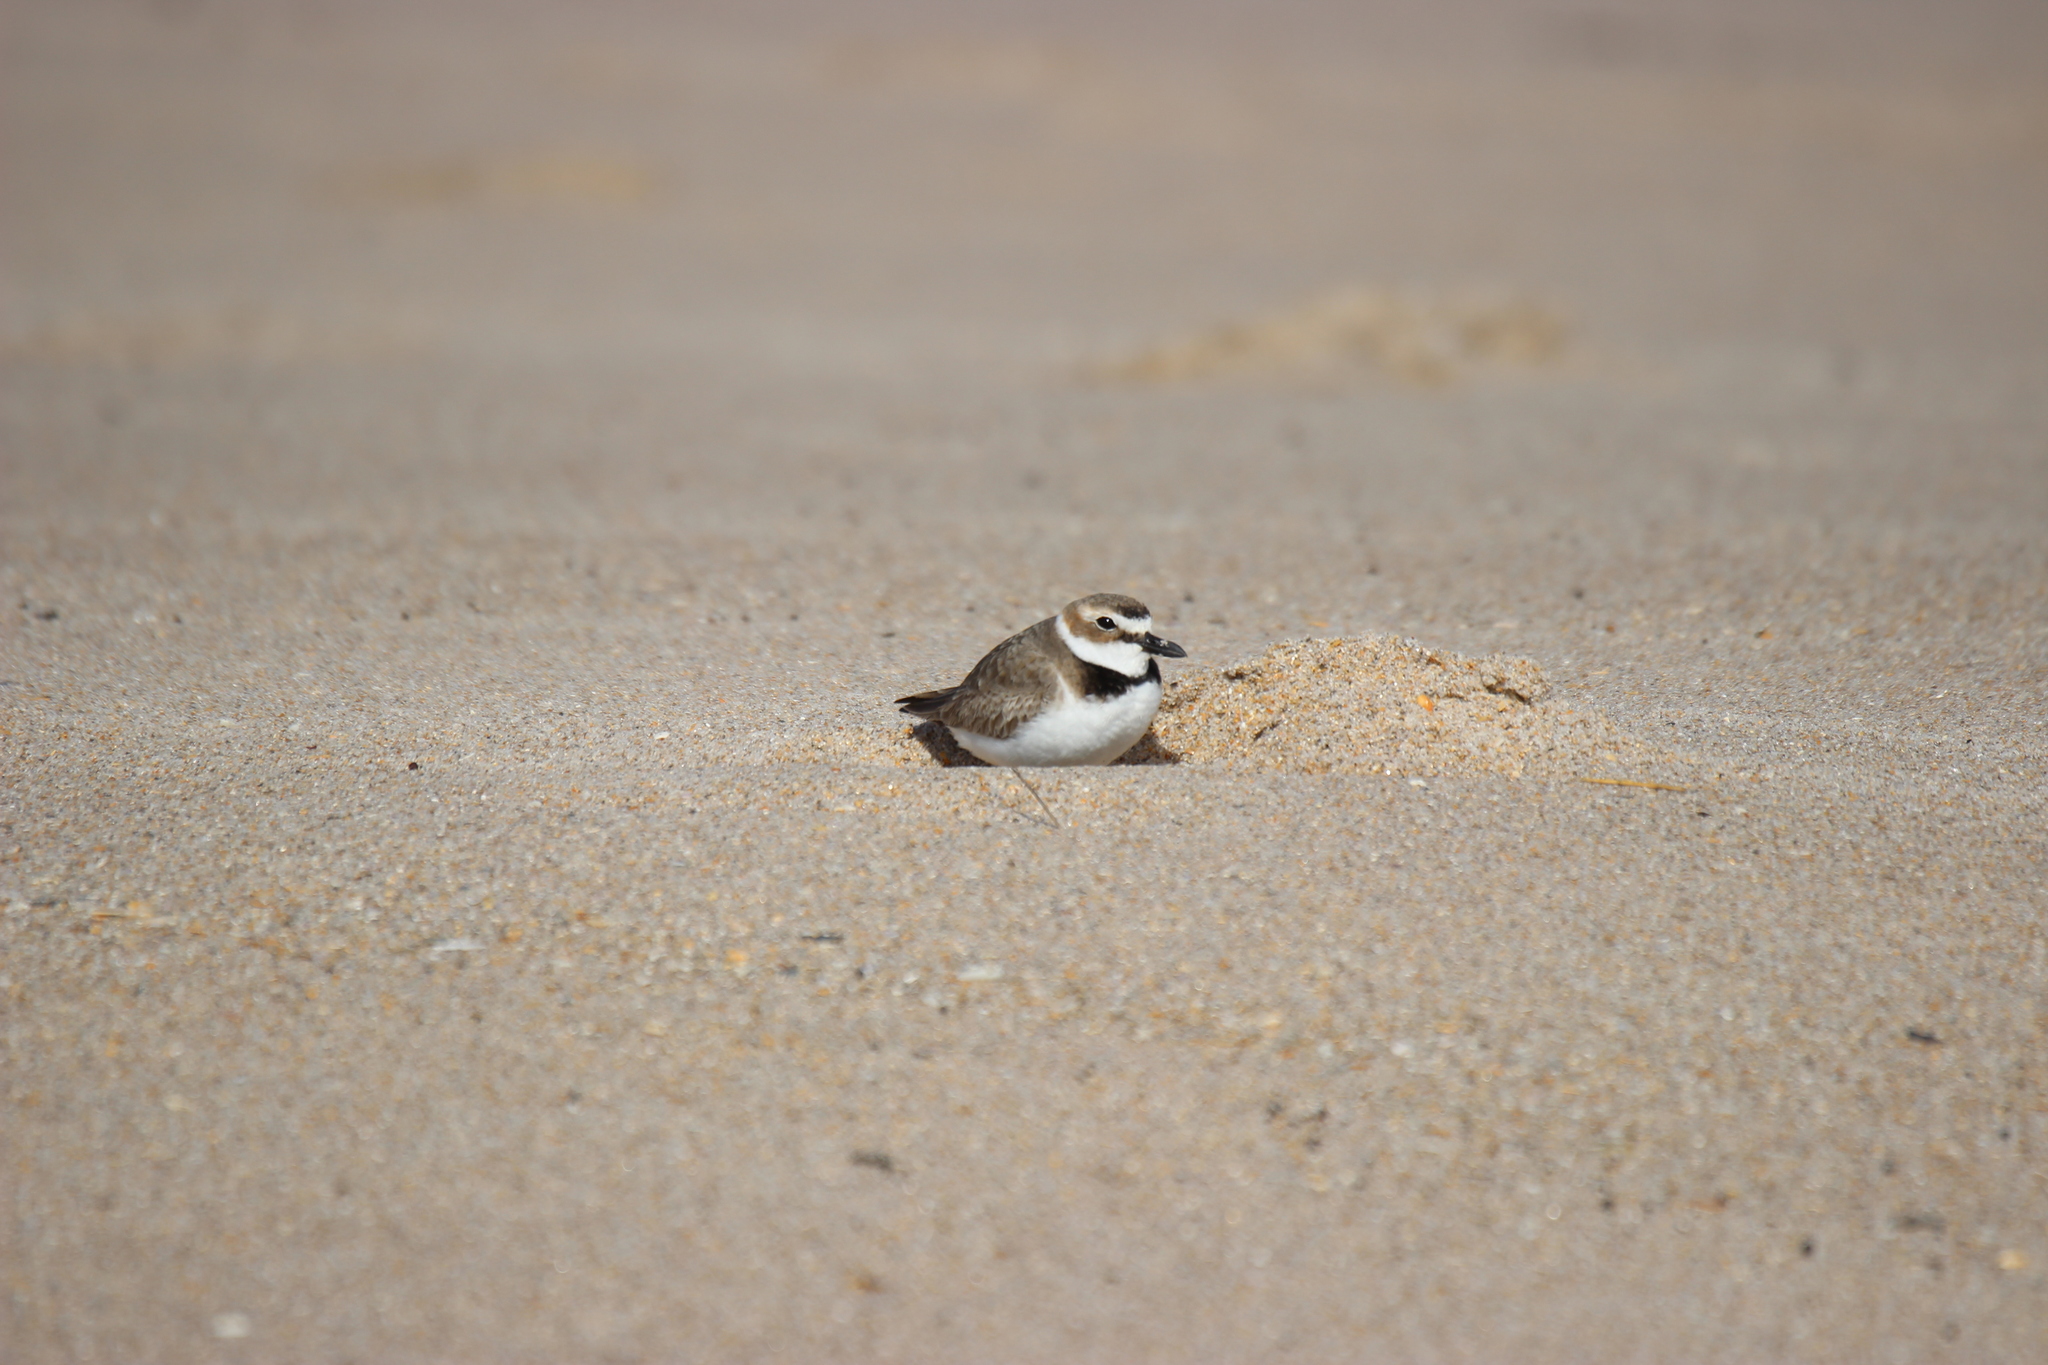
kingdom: Animalia
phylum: Chordata
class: Aves
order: Charadriiformes
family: Charadriidae
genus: Anarhynchus
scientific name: Anarhynchus
